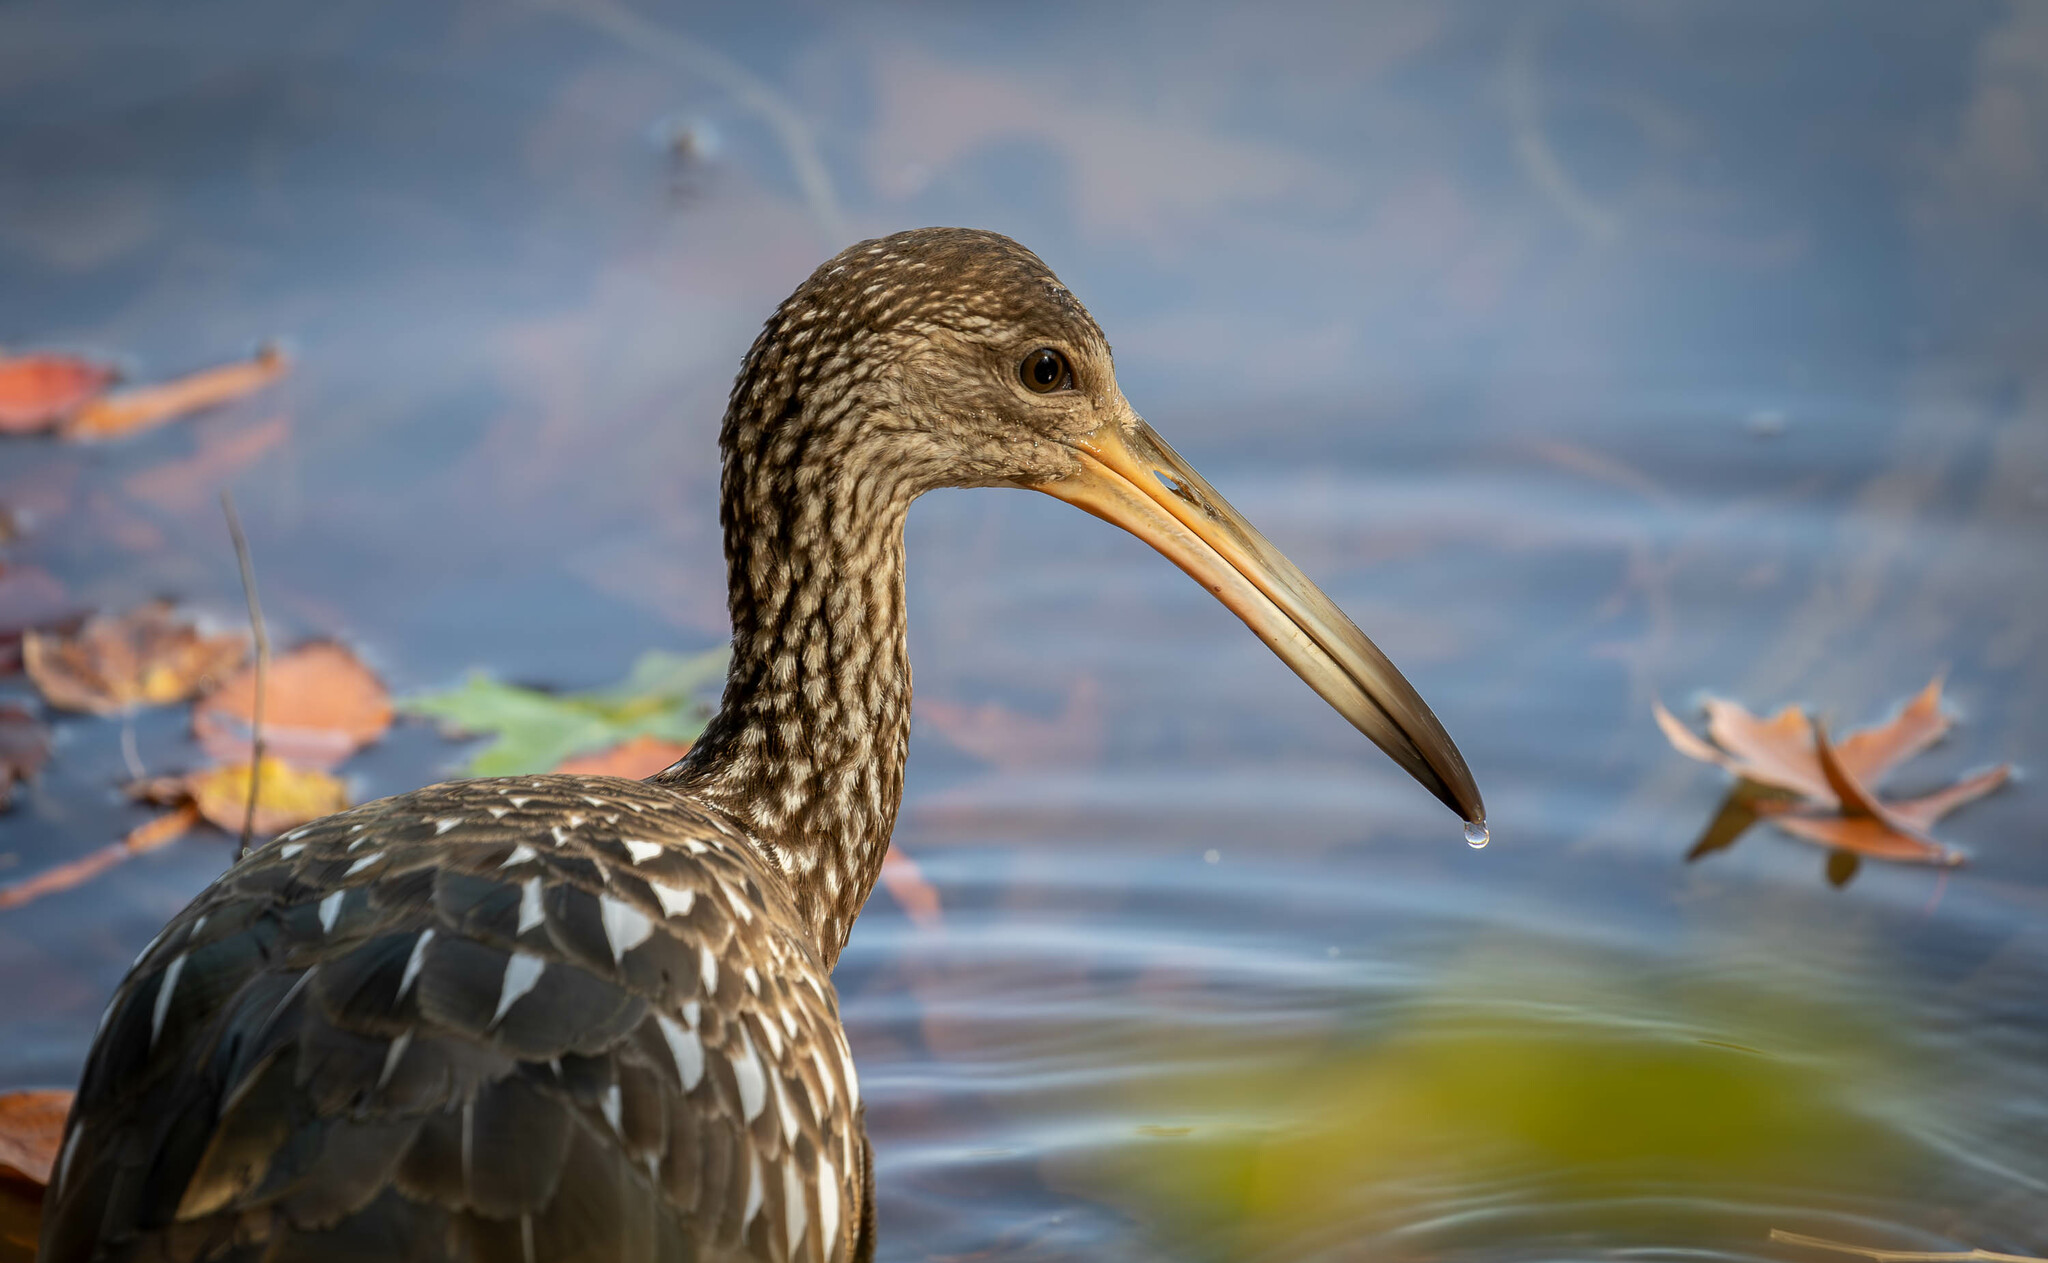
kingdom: Animalia
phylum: Chordata
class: Aves
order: Gruiformes
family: Aramidae
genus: Aramus
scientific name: Aramus guarauna
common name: Limpkin
